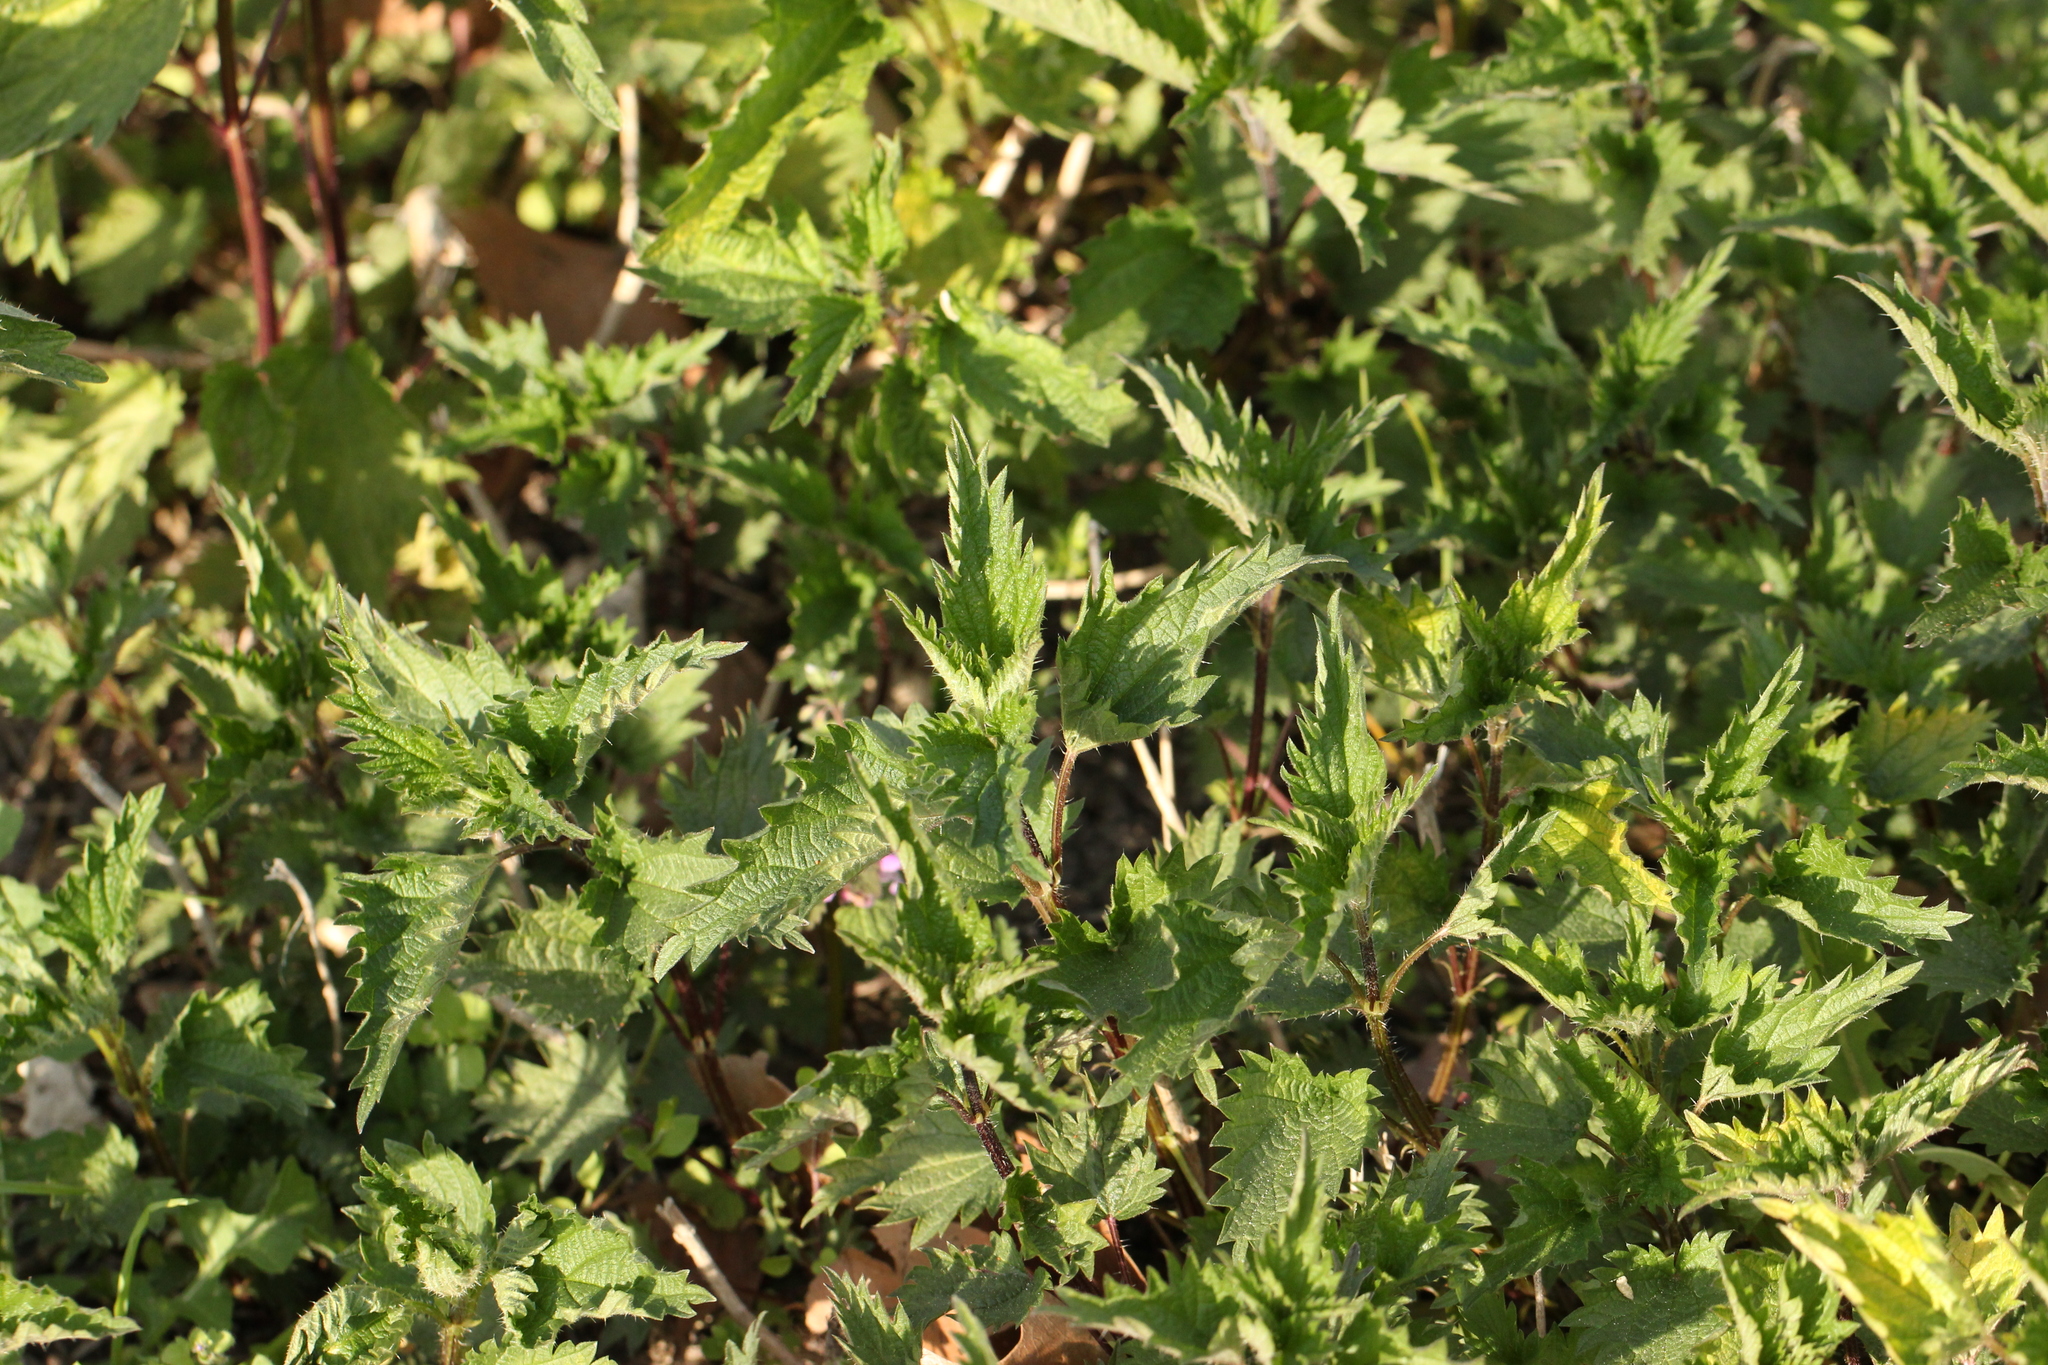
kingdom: Plantae
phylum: Tracheophyta
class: Magnoliopsida
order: Rosales
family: Urticaceae
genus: Urtica
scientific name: Urtica dioica
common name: Common nettle
